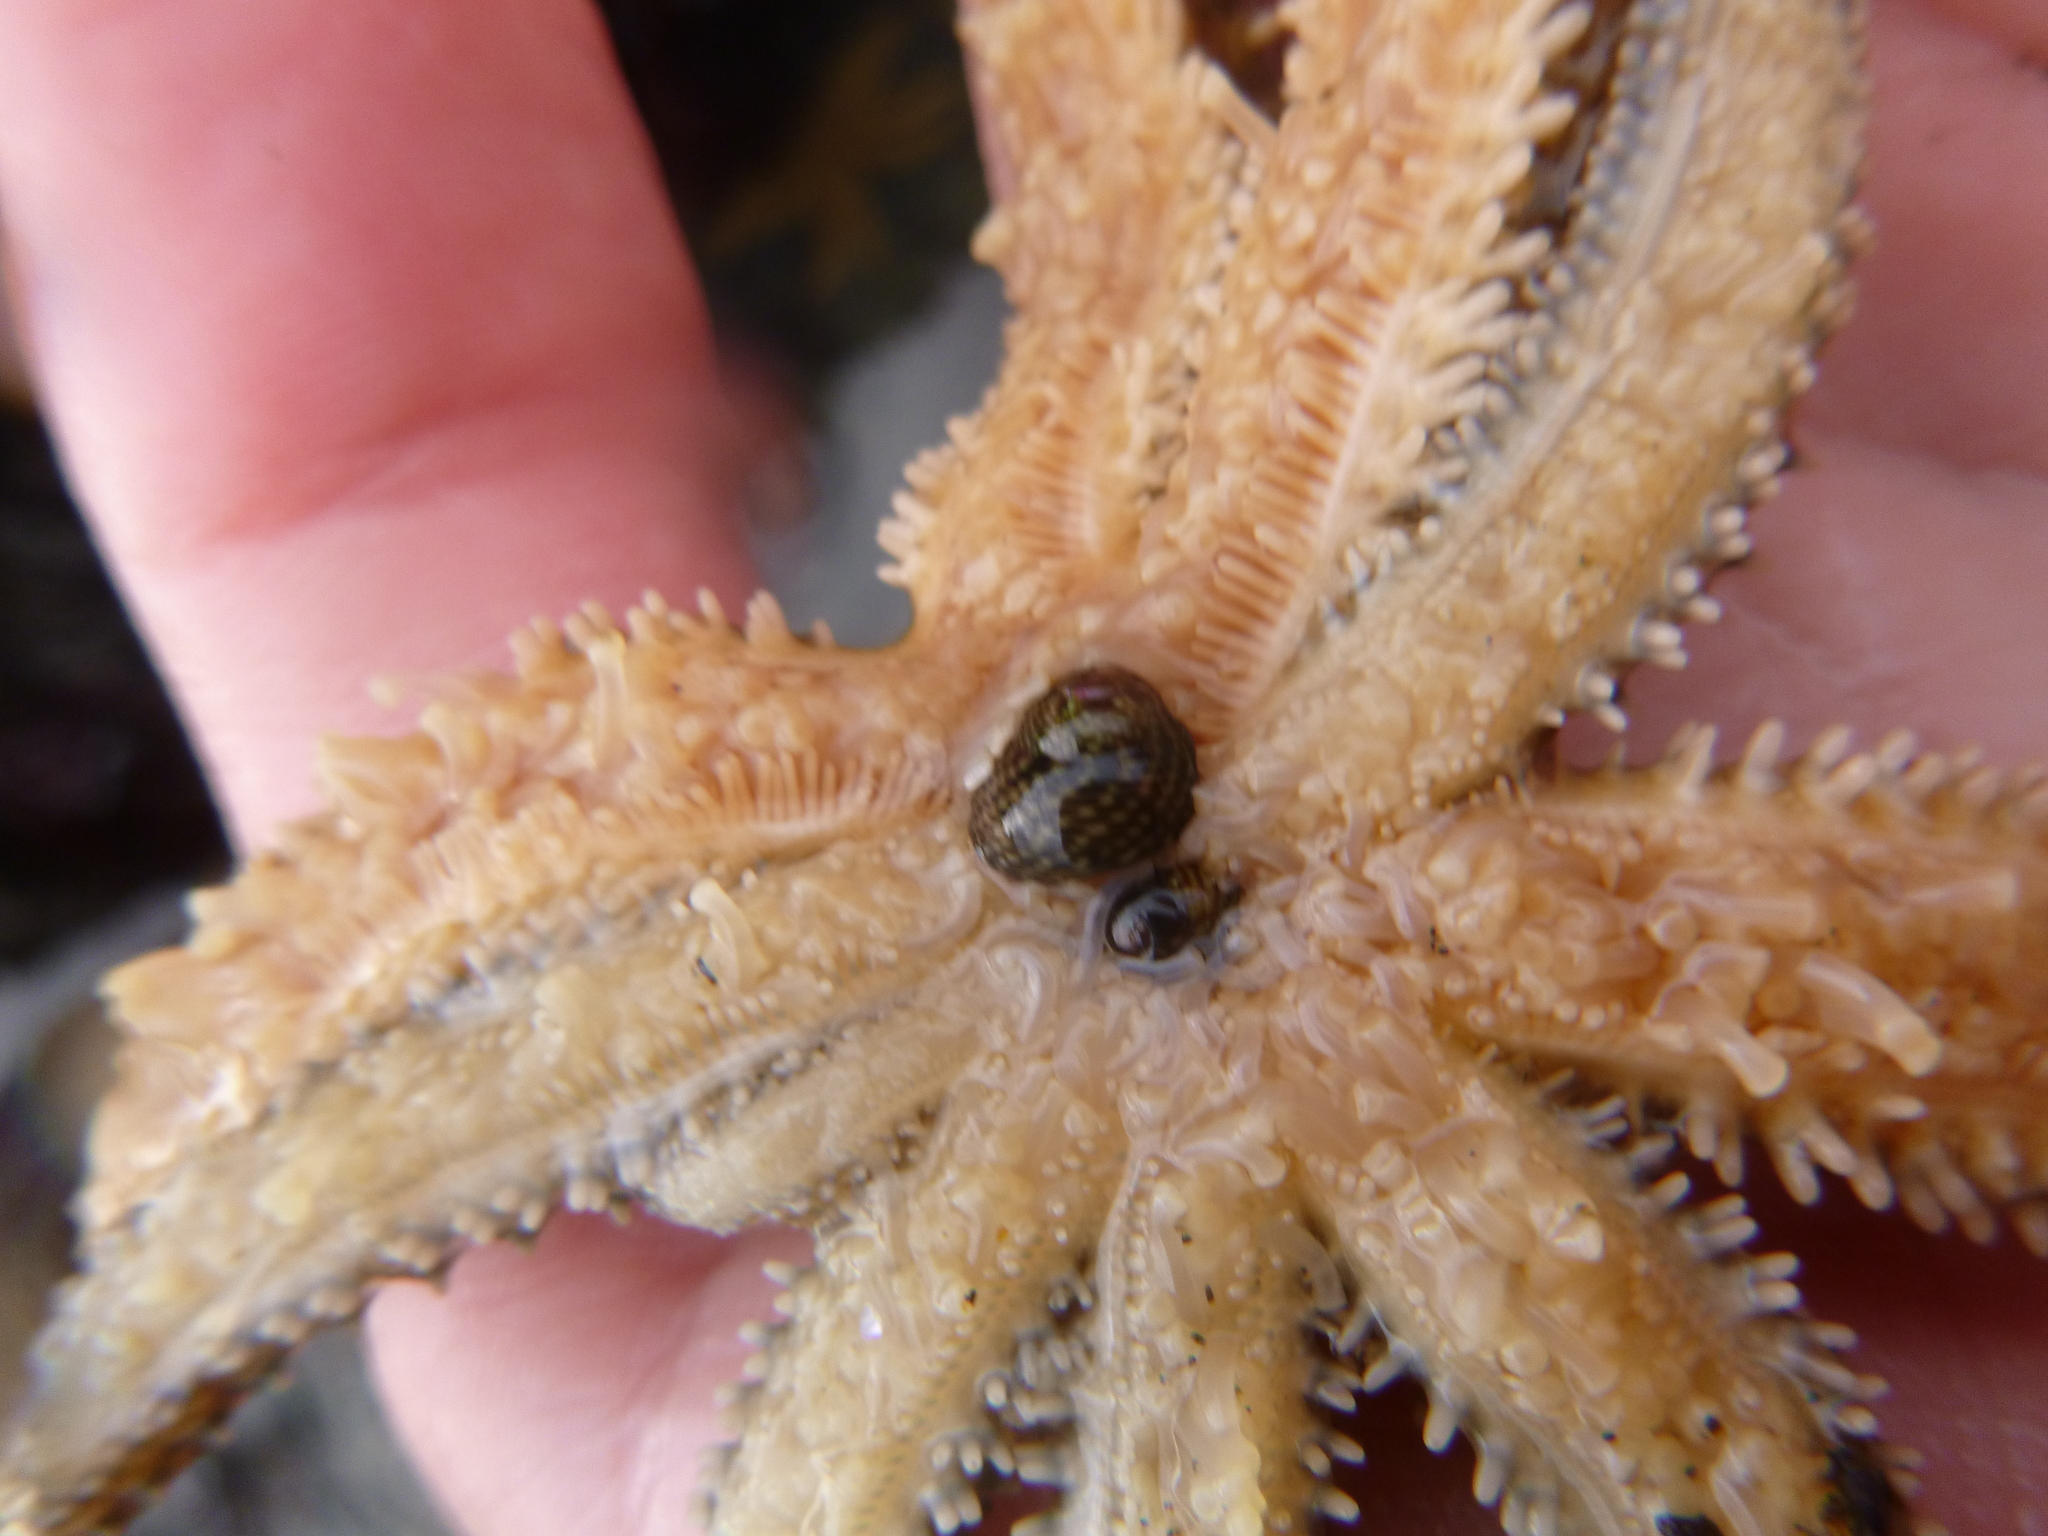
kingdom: Animalia
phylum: Mollusca
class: Gastropoda
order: Trochida
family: Trochidae
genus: Micrelenchus
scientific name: Micrelenchus tessellatus
